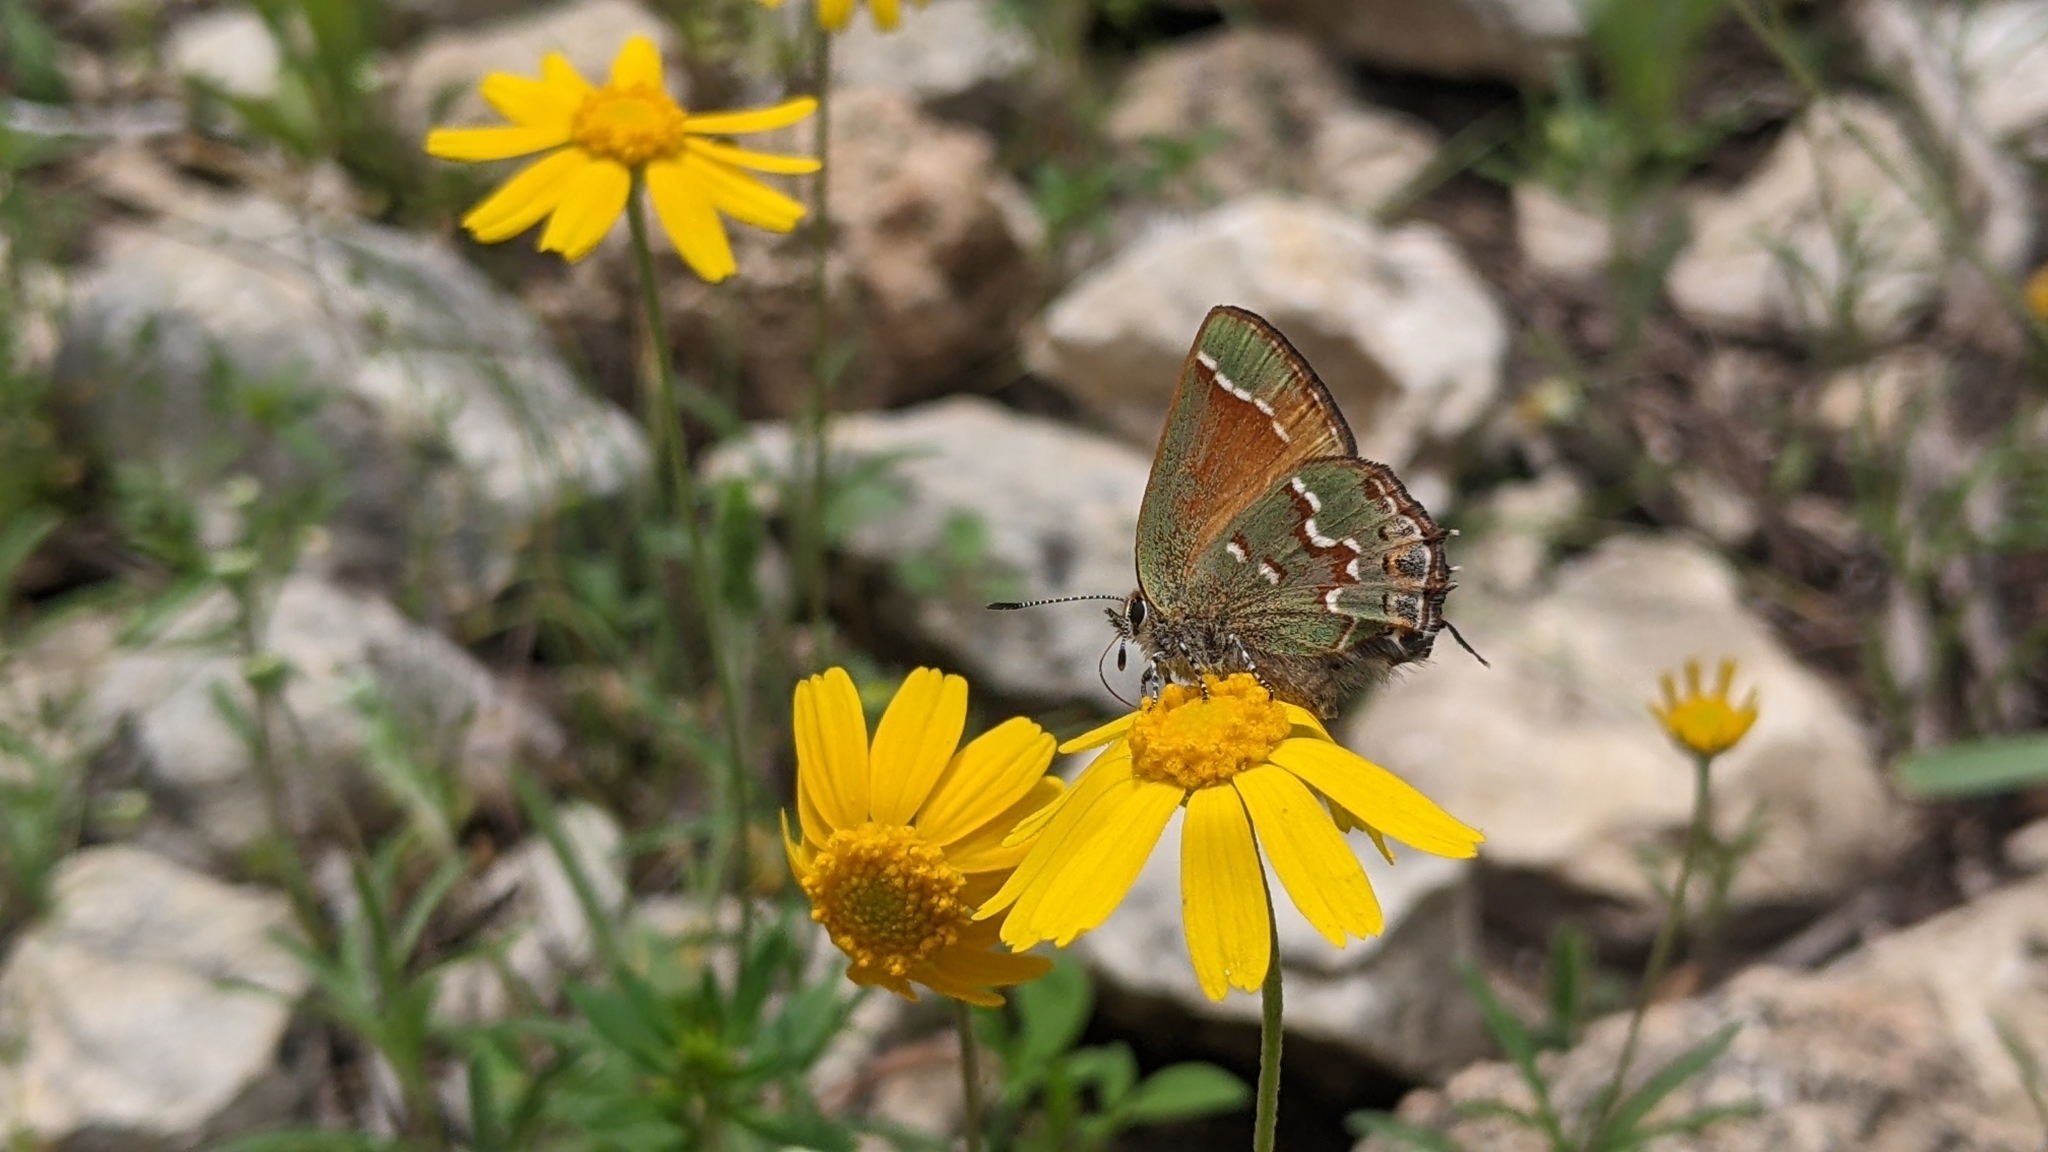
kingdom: Animalia
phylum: Arthropoda
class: Insecta
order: Lepidoptera
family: Lycaenidae
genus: Mitoura
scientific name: Mitoura gryneus
